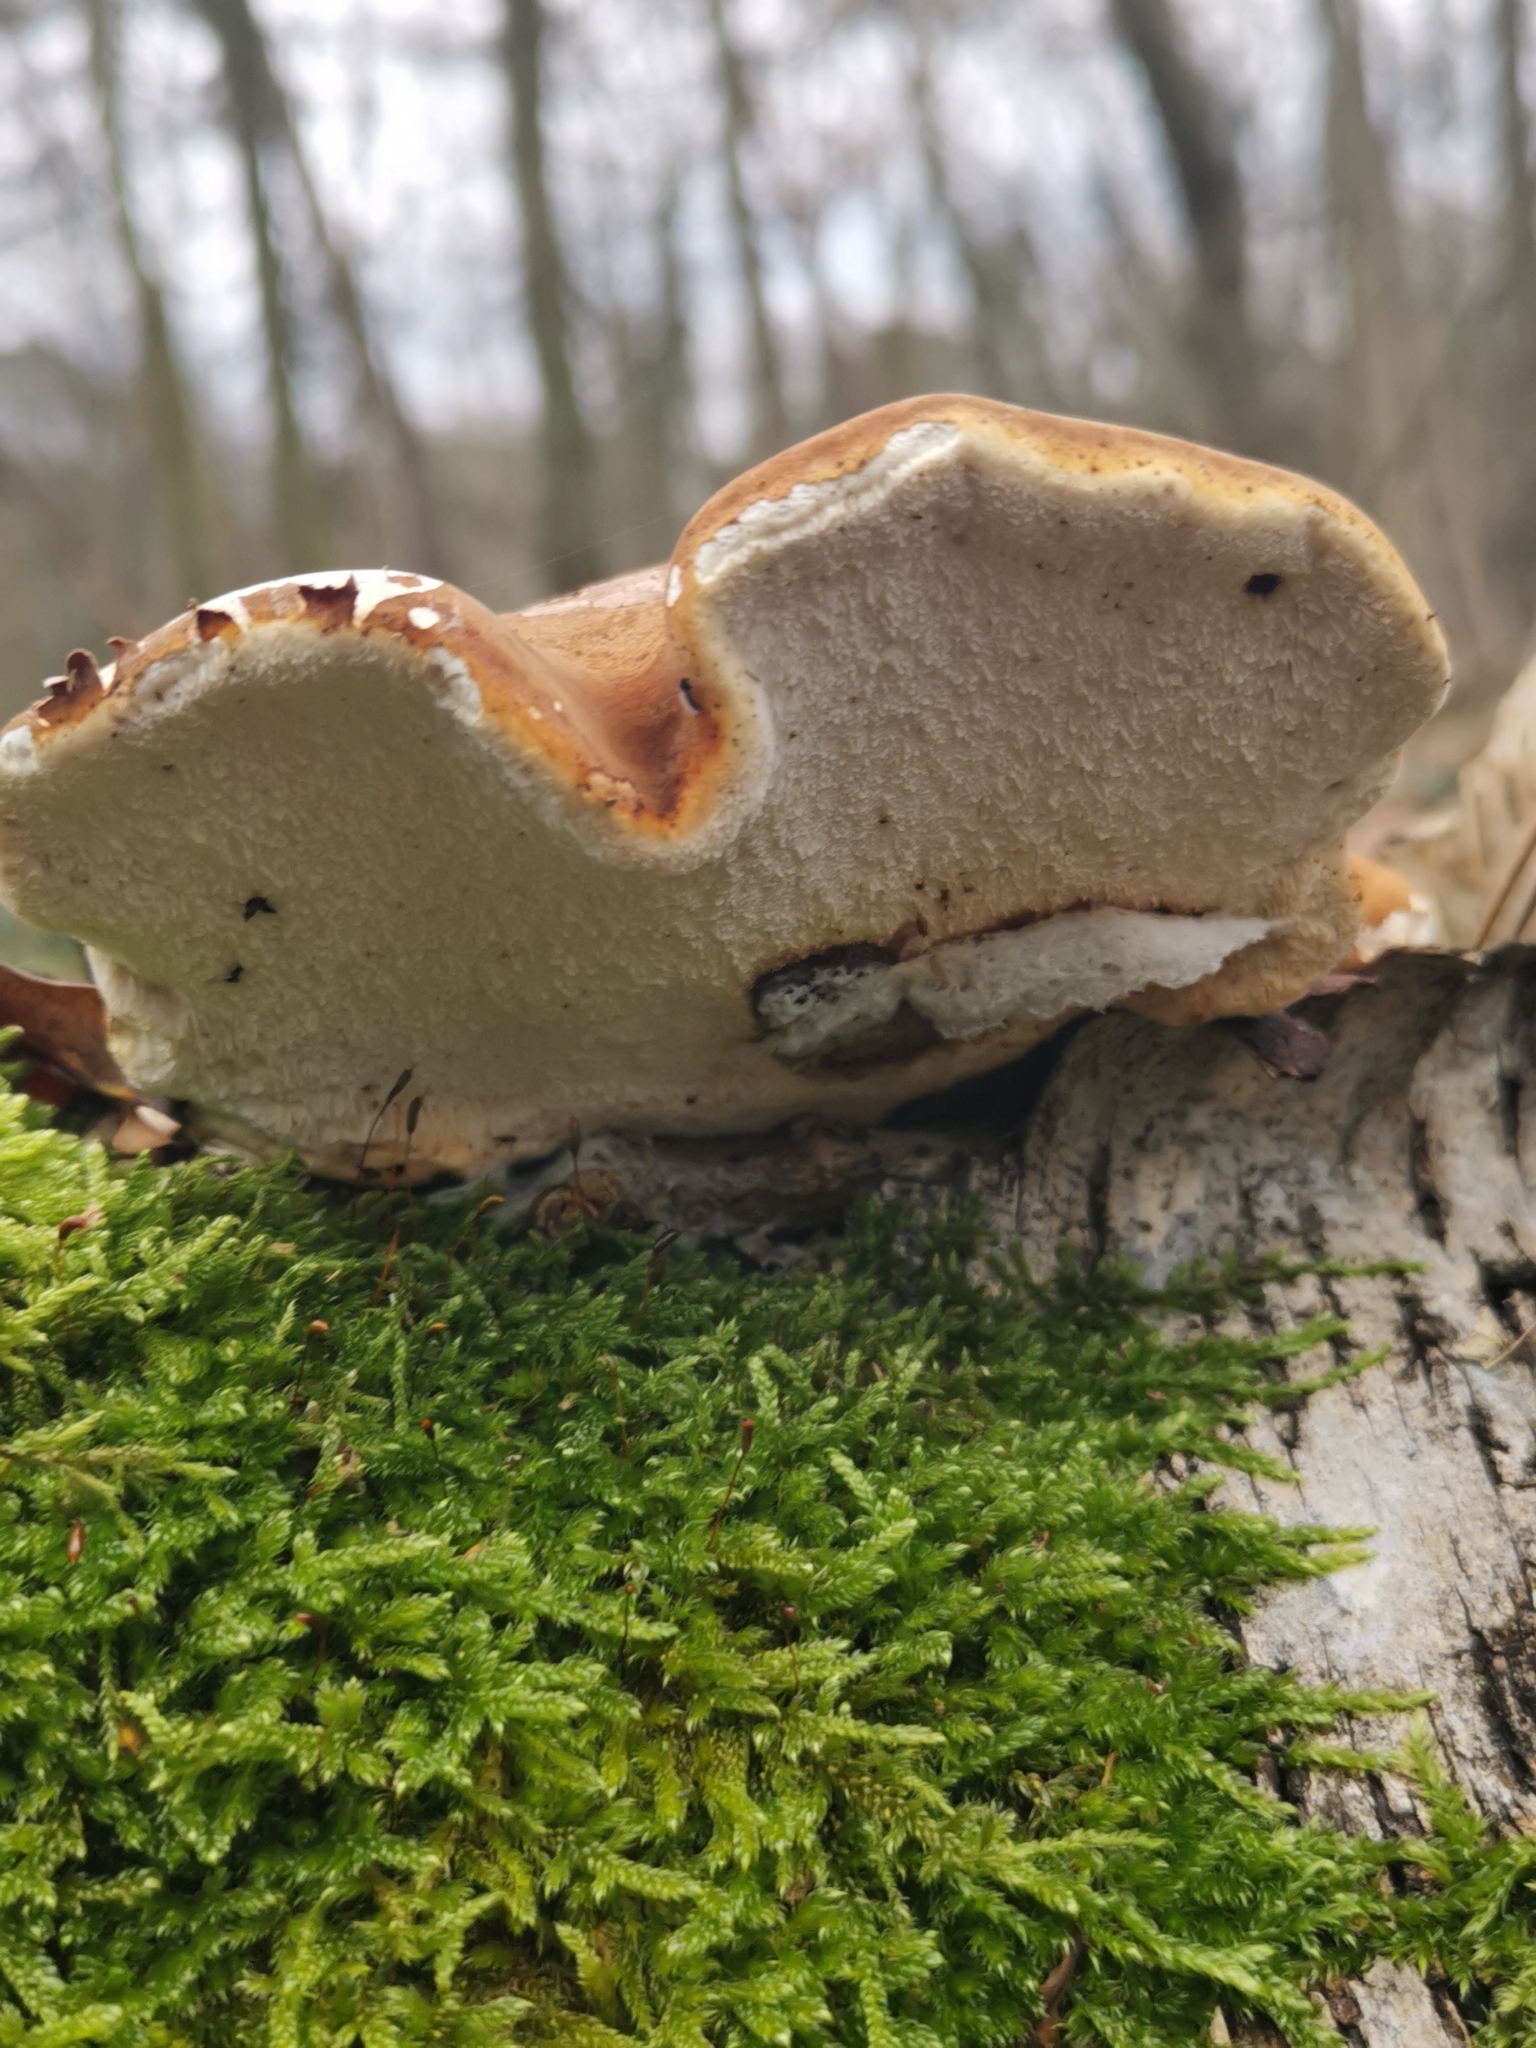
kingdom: Fungi
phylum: Basidiomycota
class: Agaricomycetes
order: Polyporales
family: Fomitopsidaceae
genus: Fomitopsis
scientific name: Fomitopsis betulina
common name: Birch polypore
